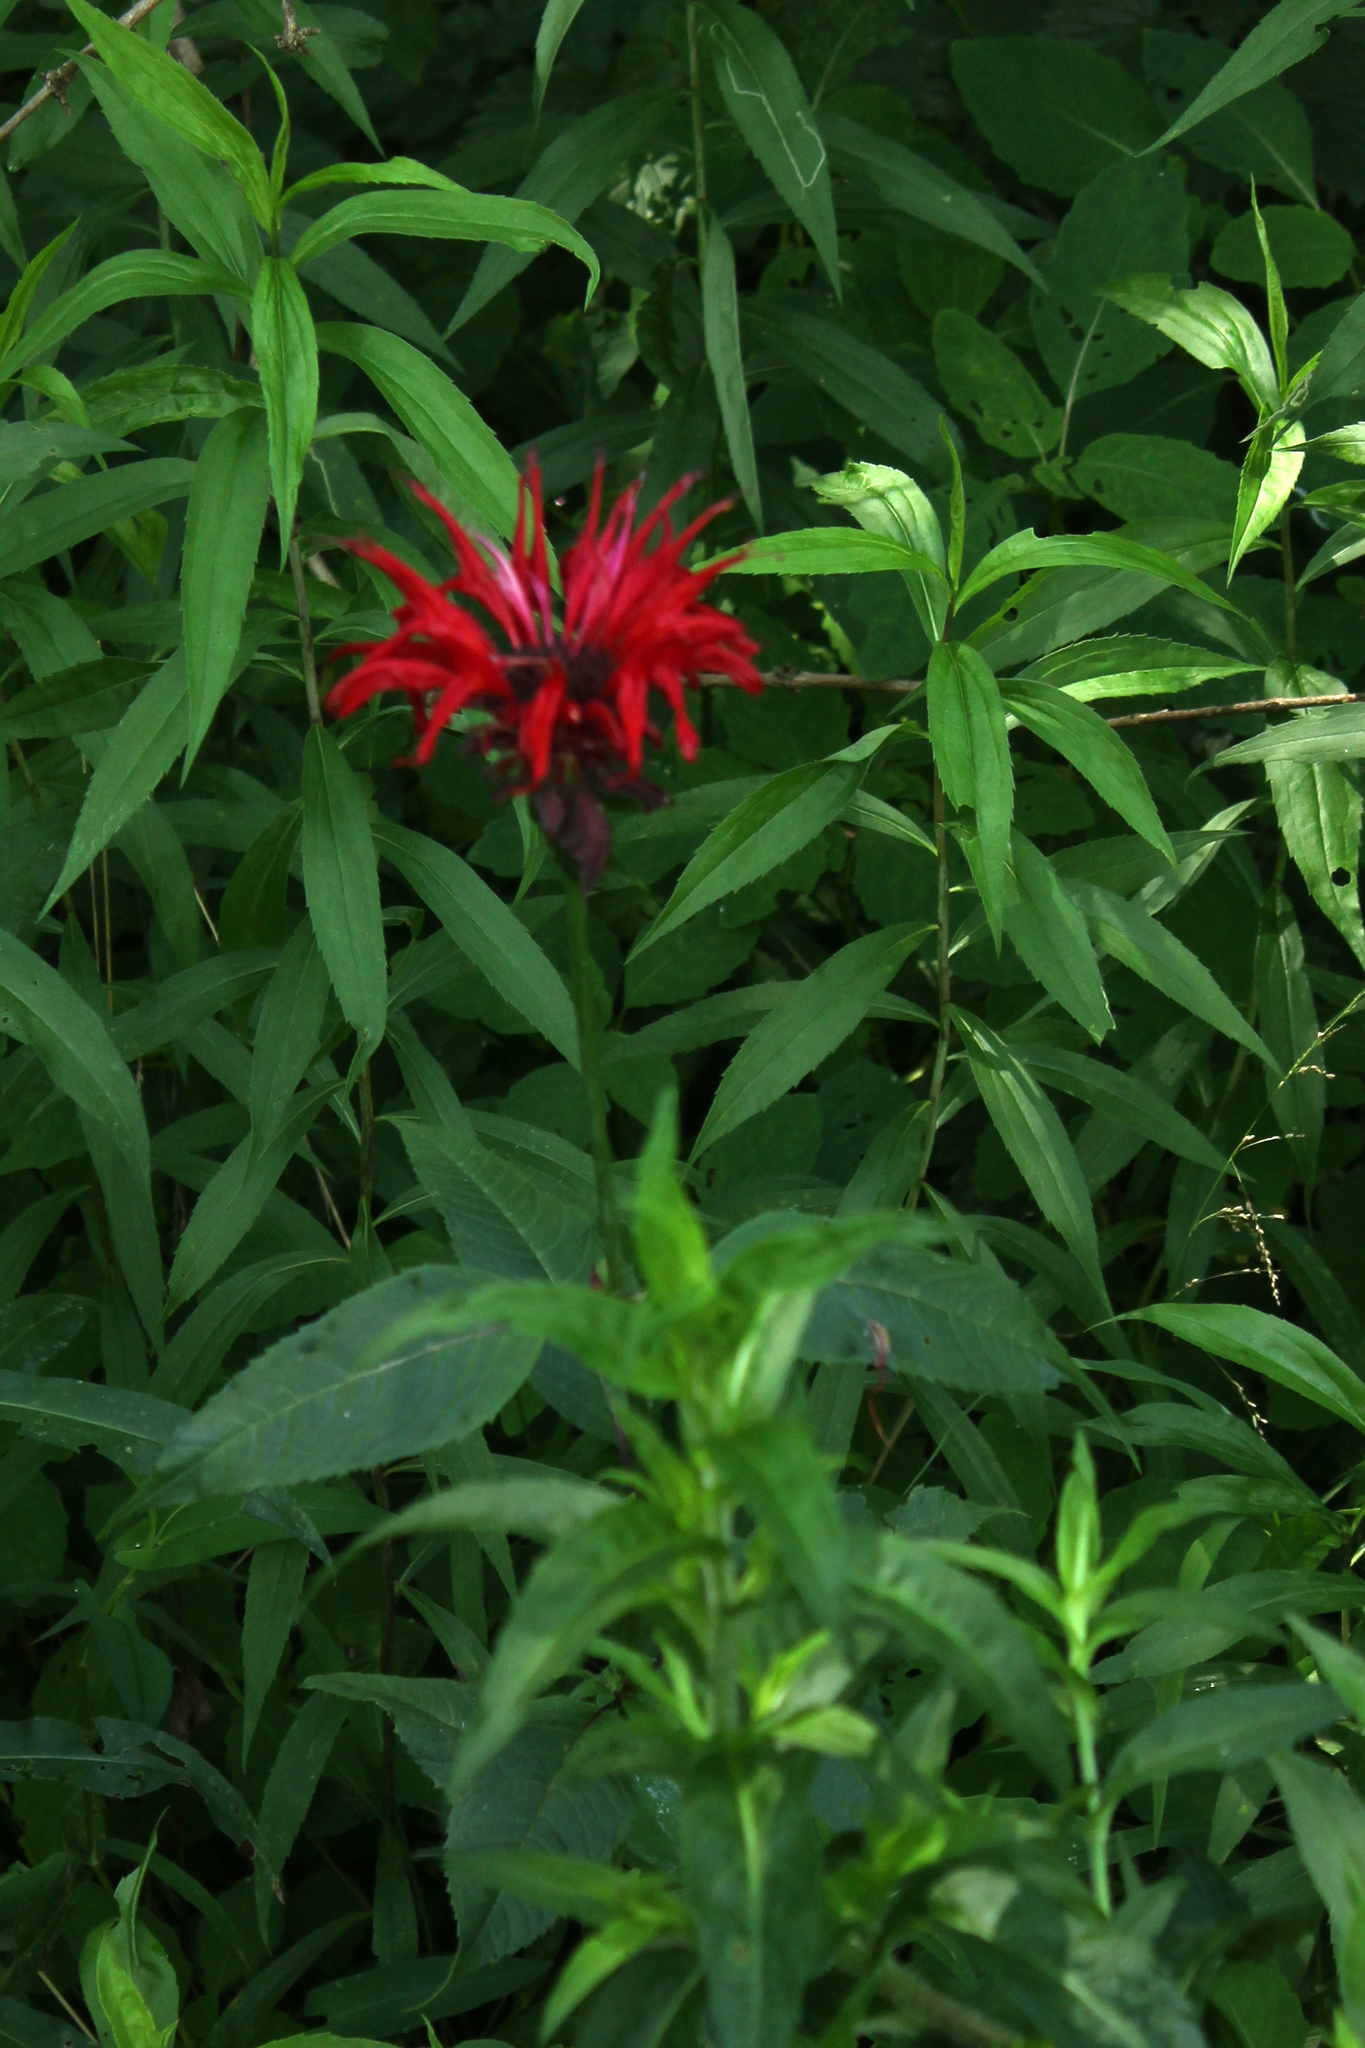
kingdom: Plantae
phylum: Tracheophyta
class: Magnoliopsida
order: Lamiales
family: Lamiaceae
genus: Monarda
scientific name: Monarda didyma
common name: Beebalm
